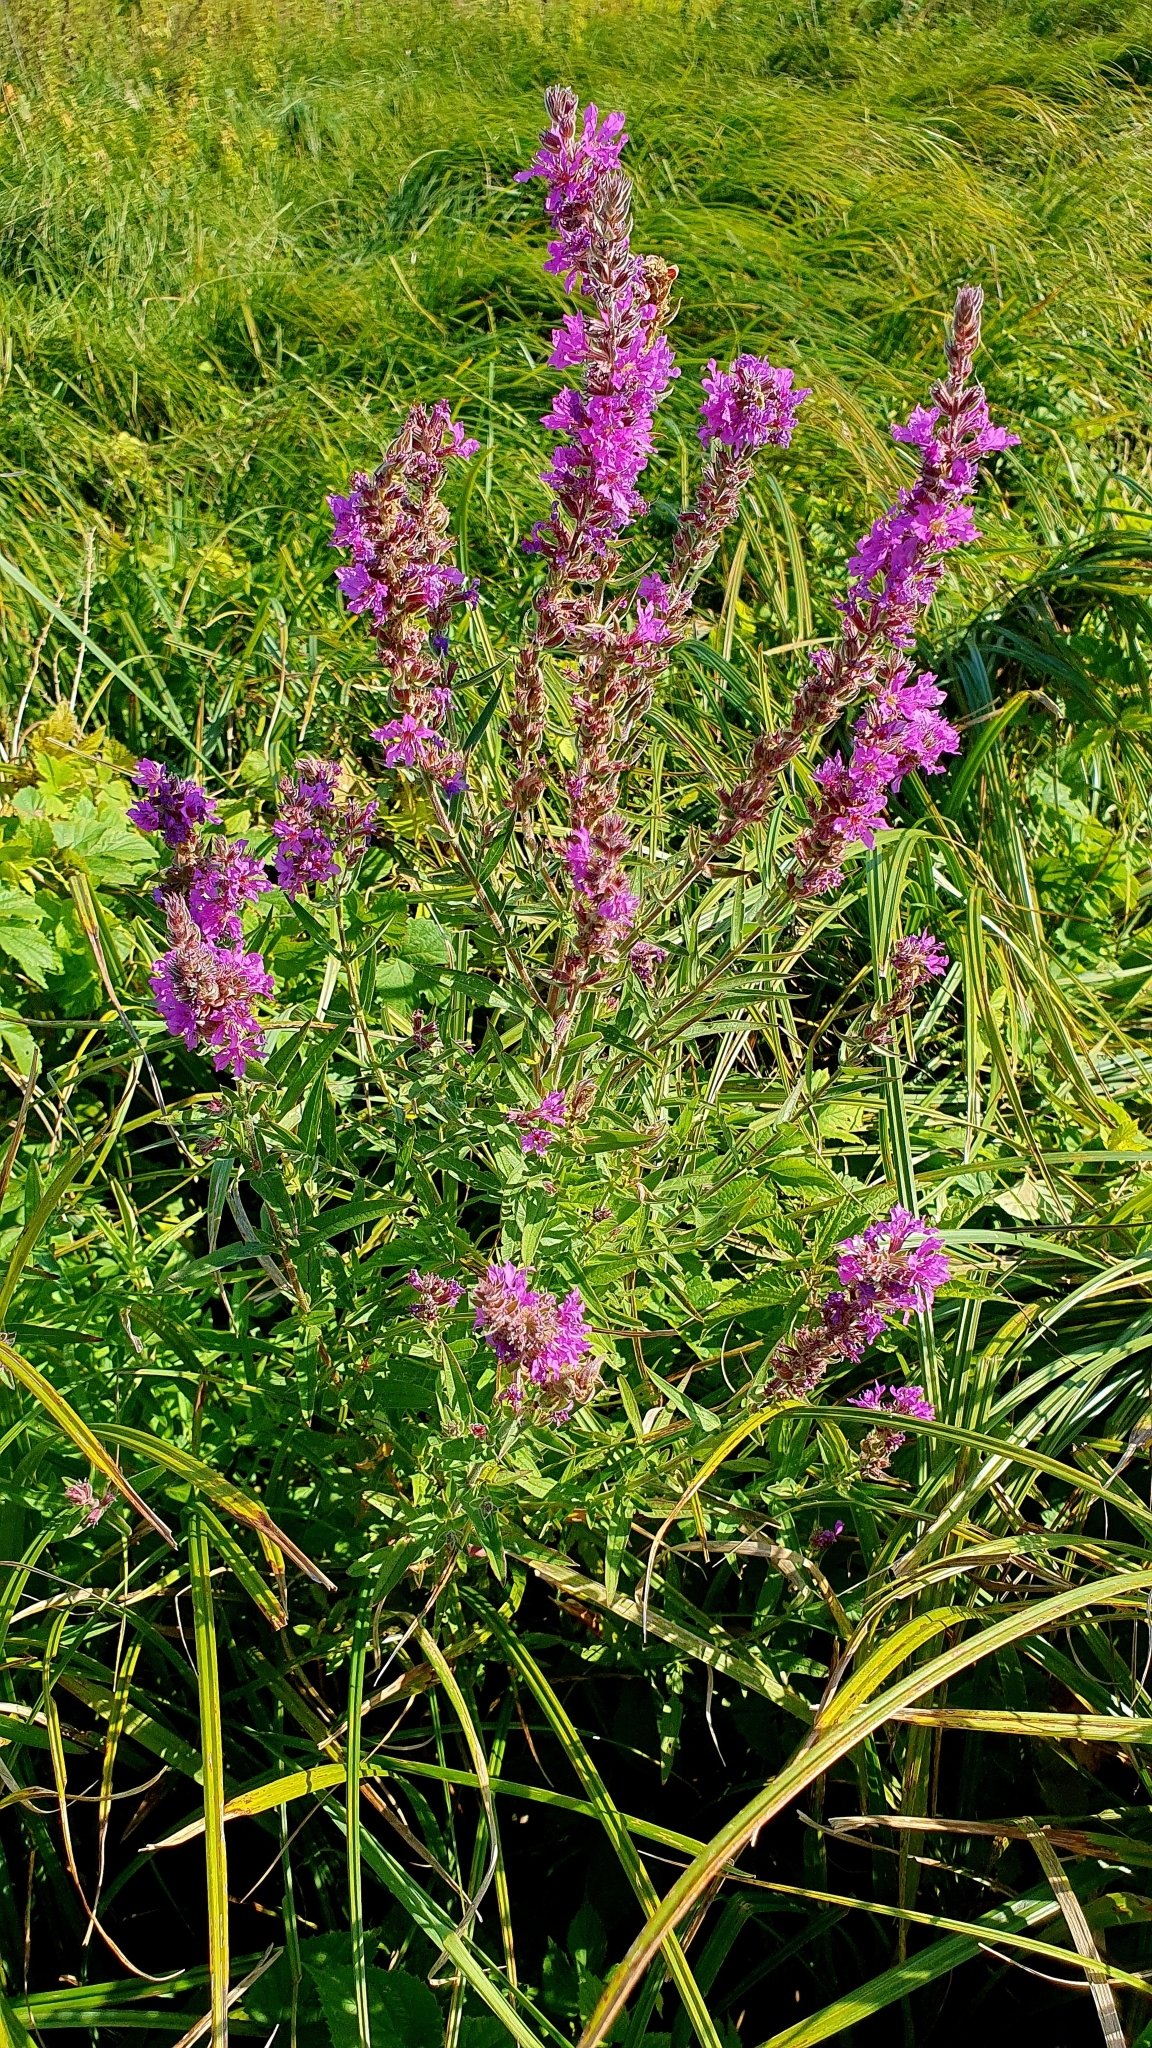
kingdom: Plantae
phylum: Tracheophyta
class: Magnoliopsida
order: Myrtales
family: Lythraceae
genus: Lythrum
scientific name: Lythrum salicaria
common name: Purple loosestrife
